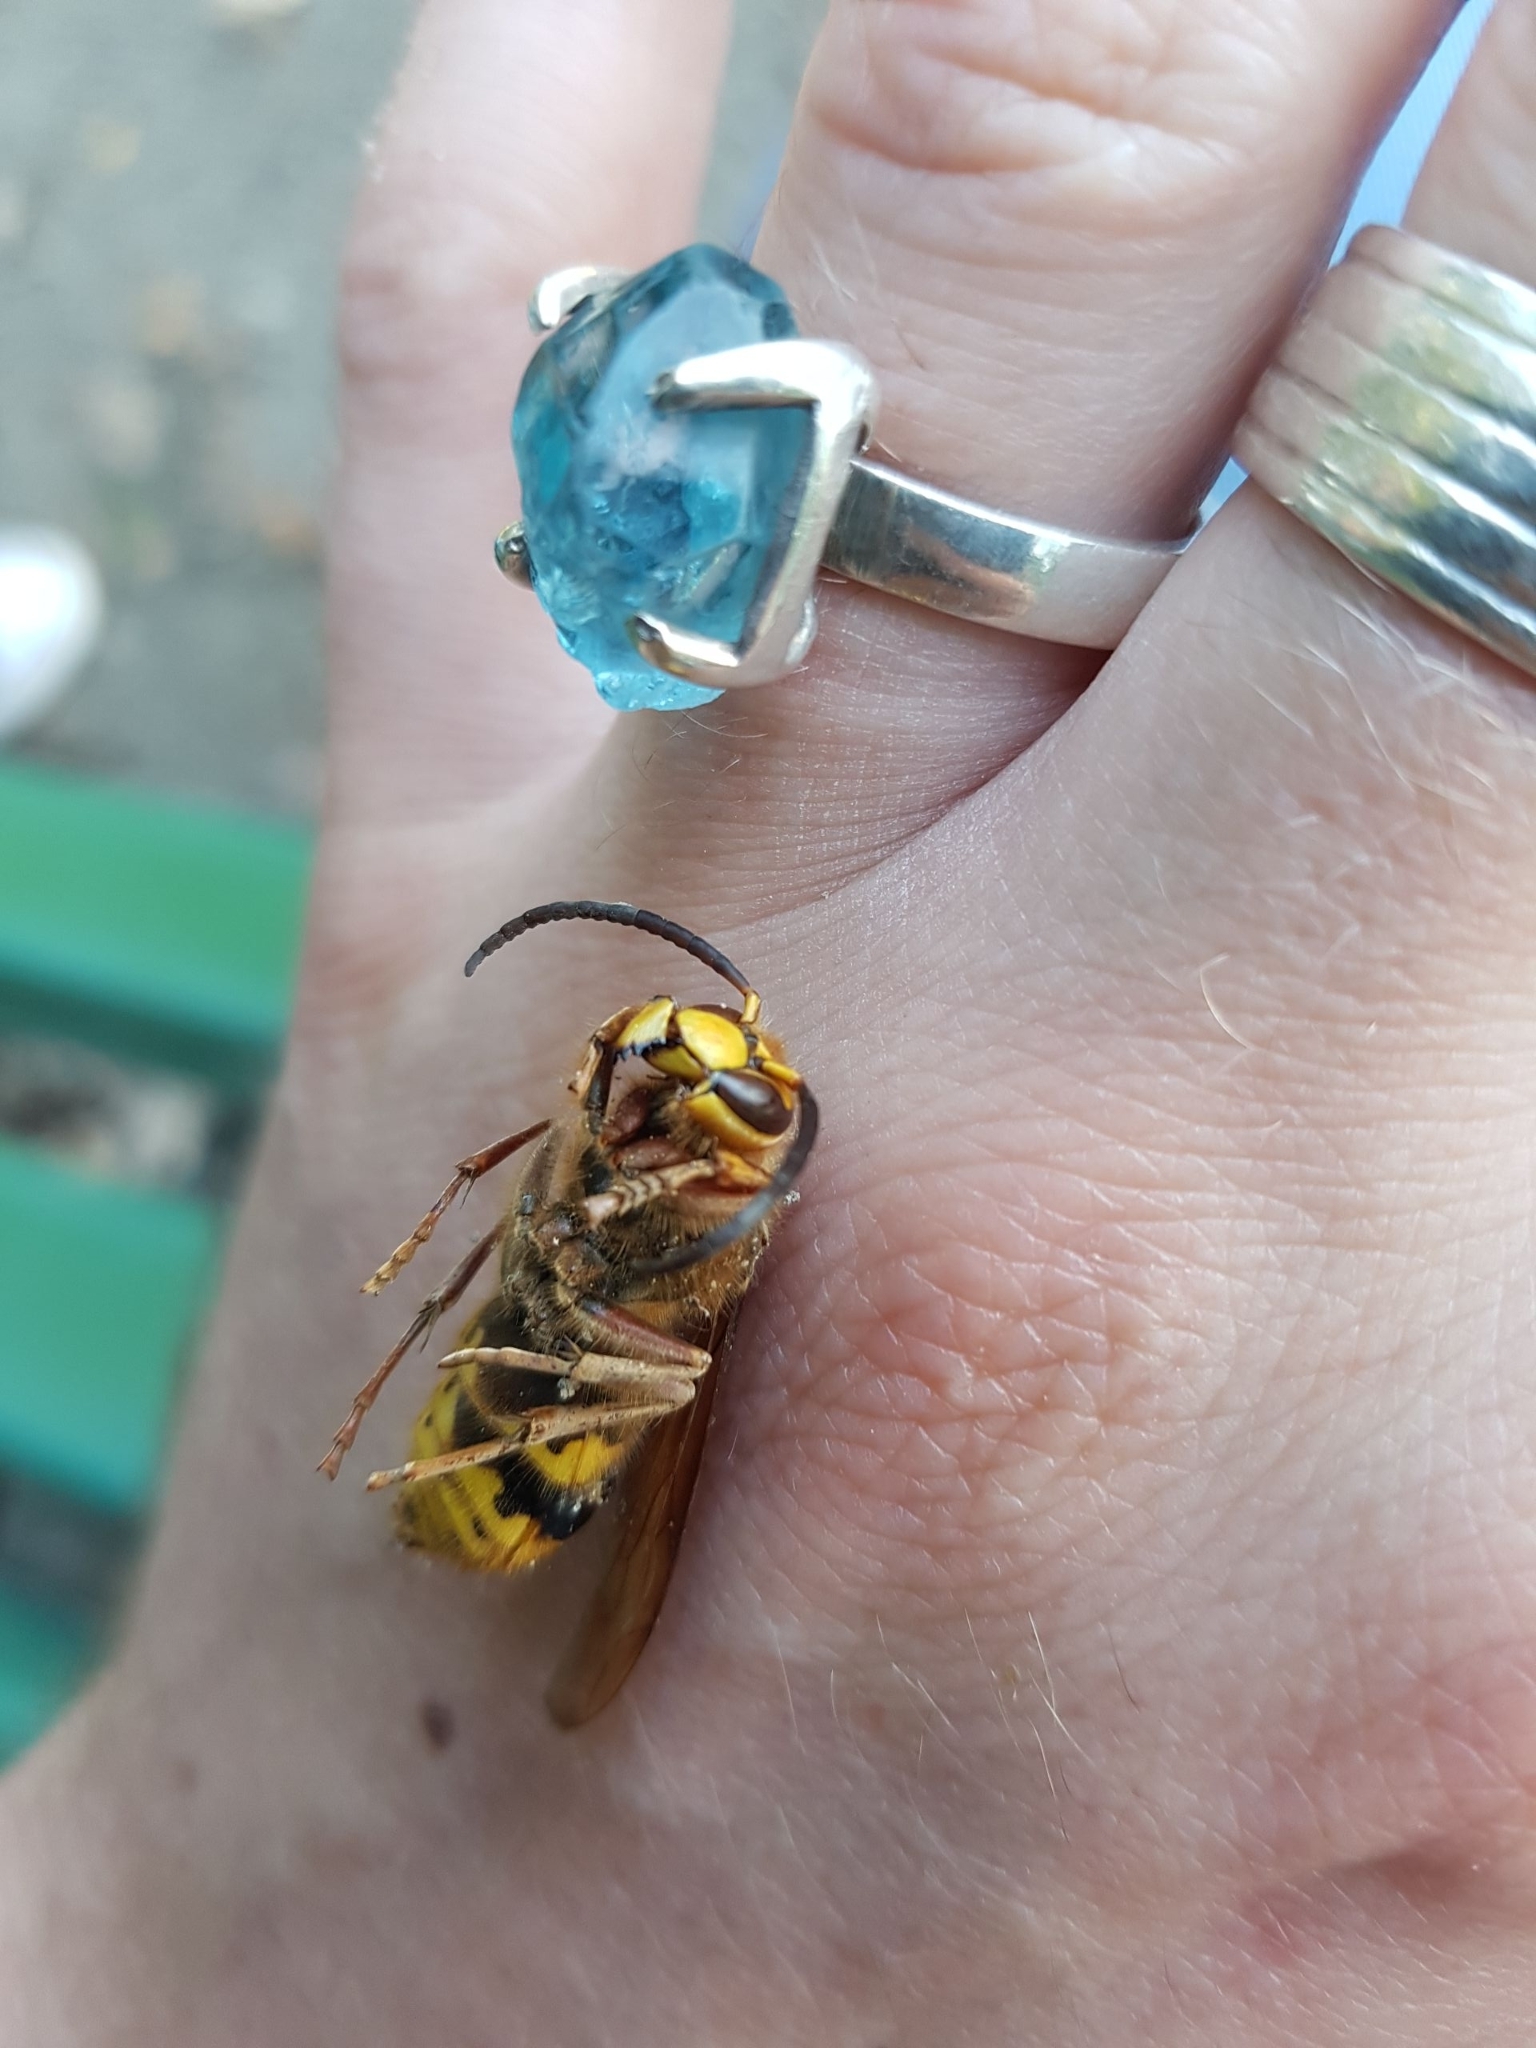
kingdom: Animalia
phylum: Arthropoda
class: Insecta
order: Hymenoptera
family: Vespidae
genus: Vespa
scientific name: Vespa crabro
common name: Hornet
